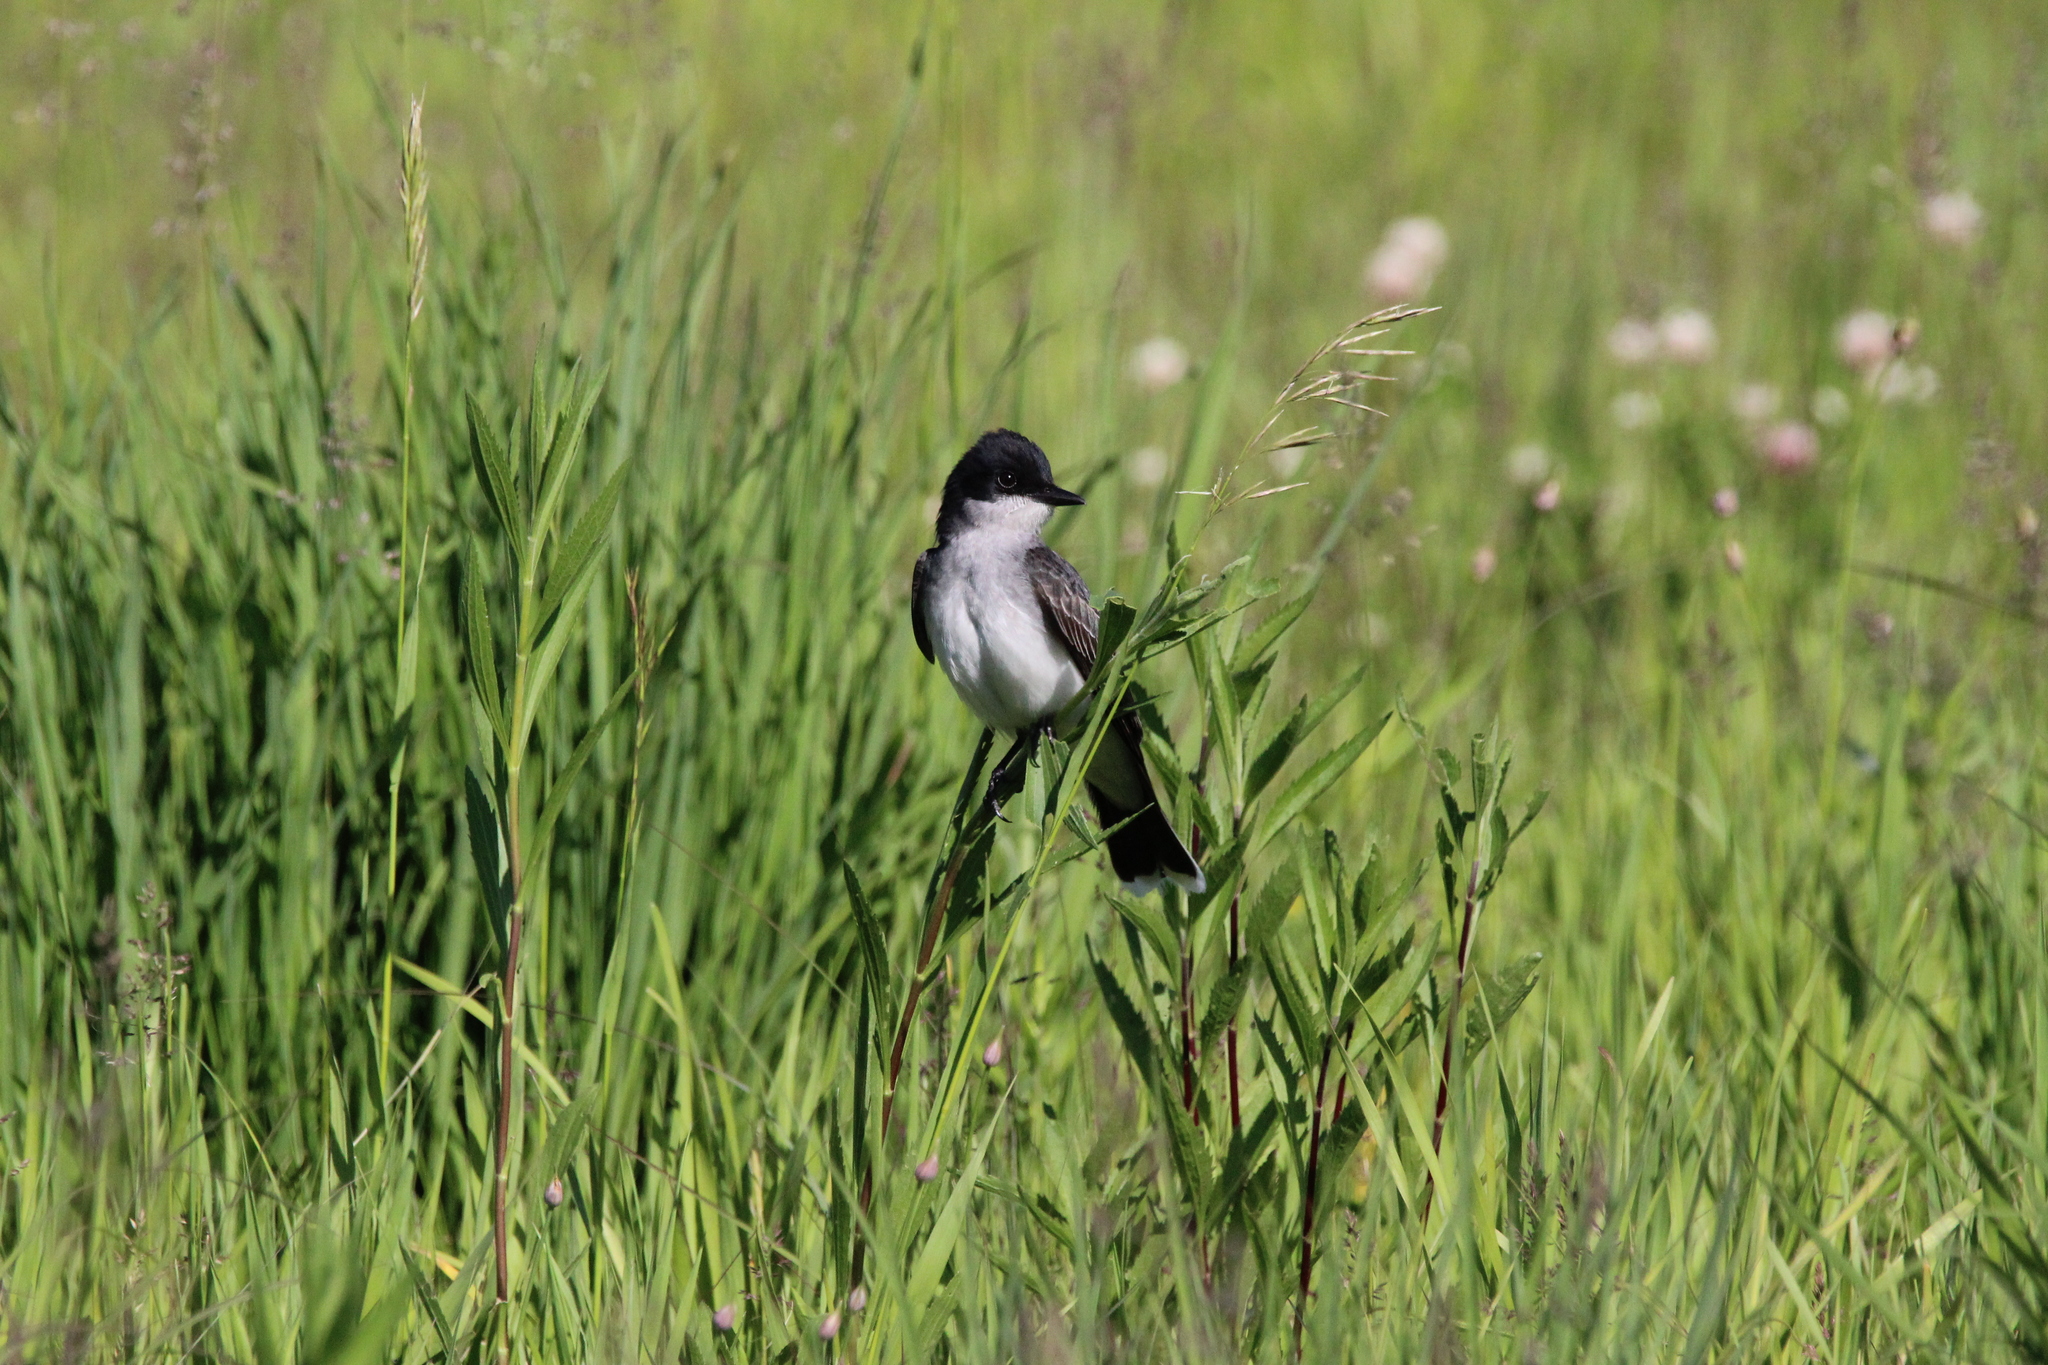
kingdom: Animalia
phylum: Chordata
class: Aves
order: Passeriformes
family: Tyrannidae
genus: Tyrannus
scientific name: Tyrannus tyrannus
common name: Eastern kingbird
